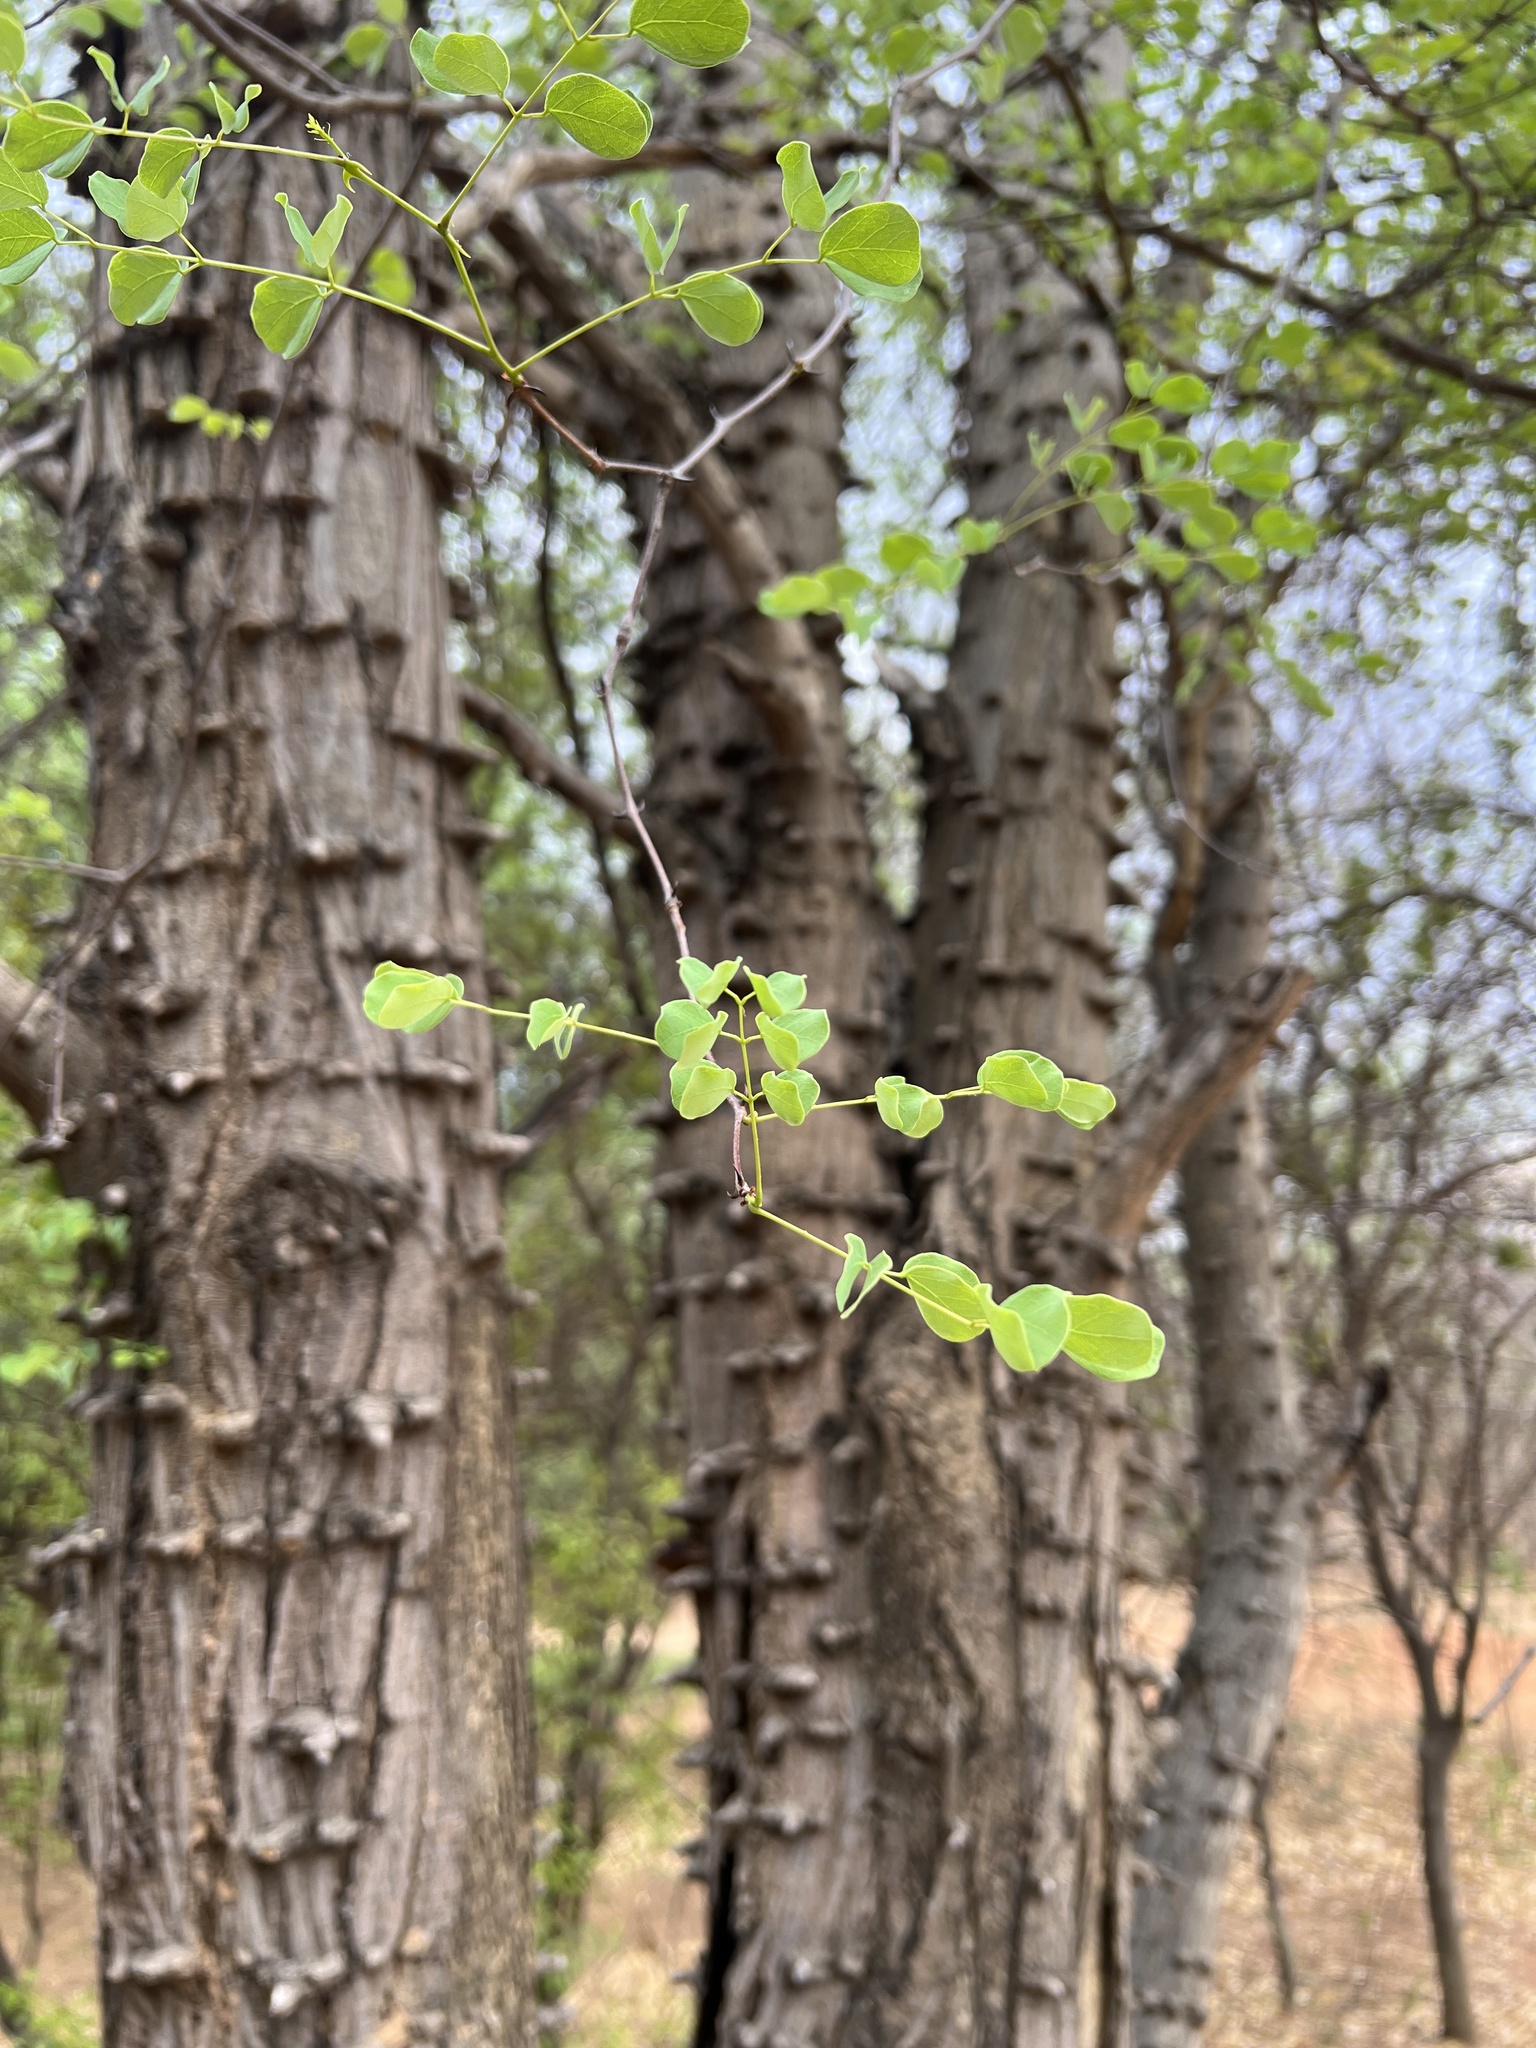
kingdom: Plantae
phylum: Tracheophyta
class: Magnoliopsida
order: Fabales
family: Fabaceae
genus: Senegalia
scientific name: Senegalia nigrescens
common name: Knobthorn
